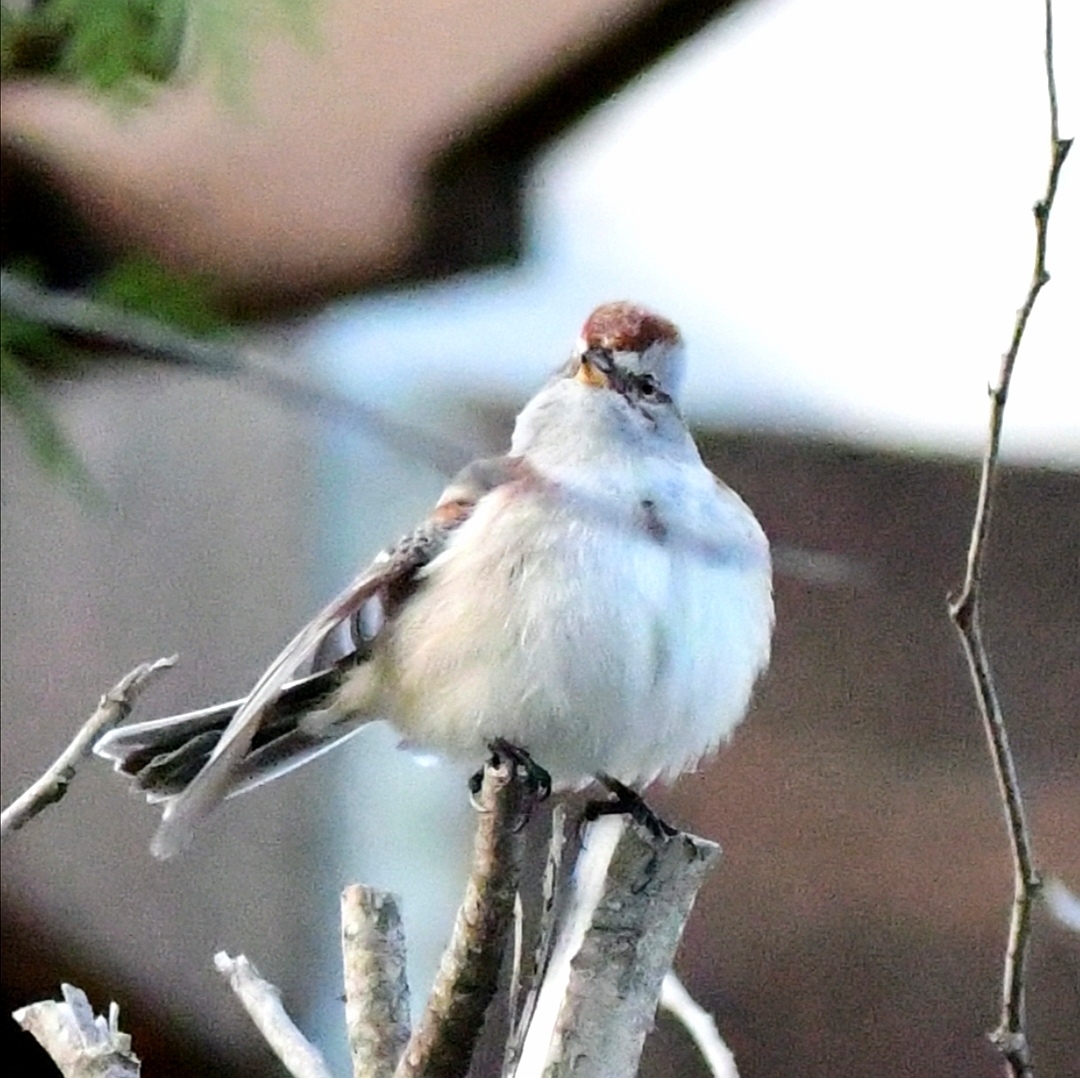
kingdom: Animalia
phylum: Chordata
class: Aves
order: Passeriformes
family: Passerellidae
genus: Spizelloides
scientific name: Spizelloides arborea
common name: American tree sparrow
